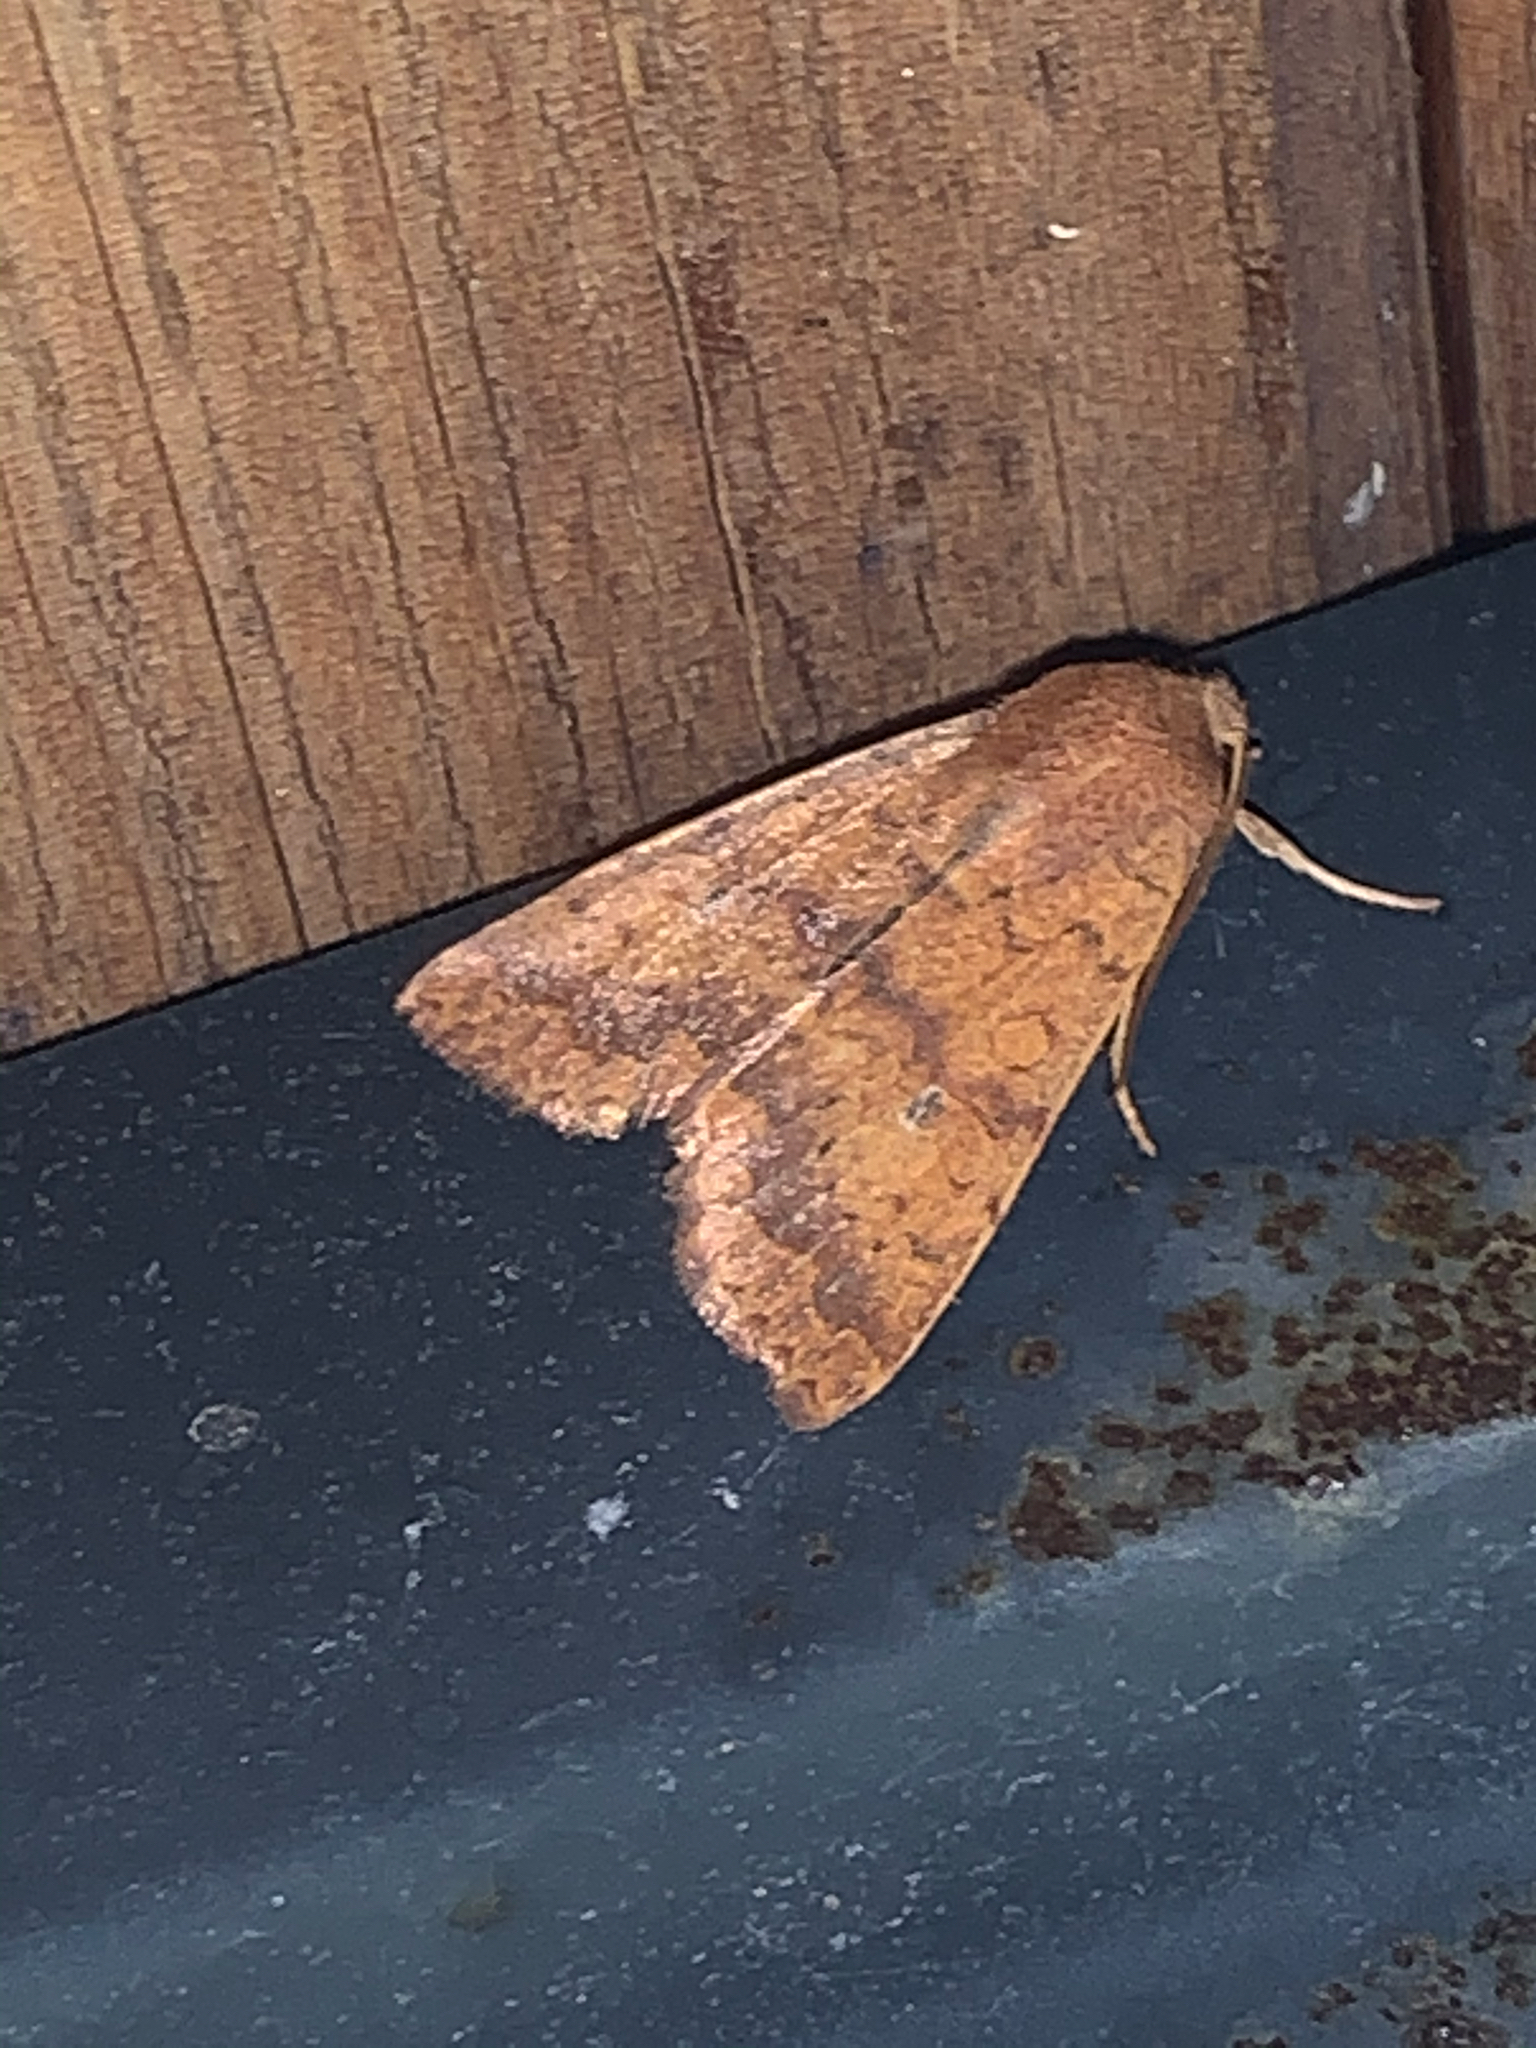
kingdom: Animalia
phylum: Arthropoda
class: Insecta
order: Lepidoptera
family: Noctuidae
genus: Agrochola
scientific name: Agrochola bicolorago
